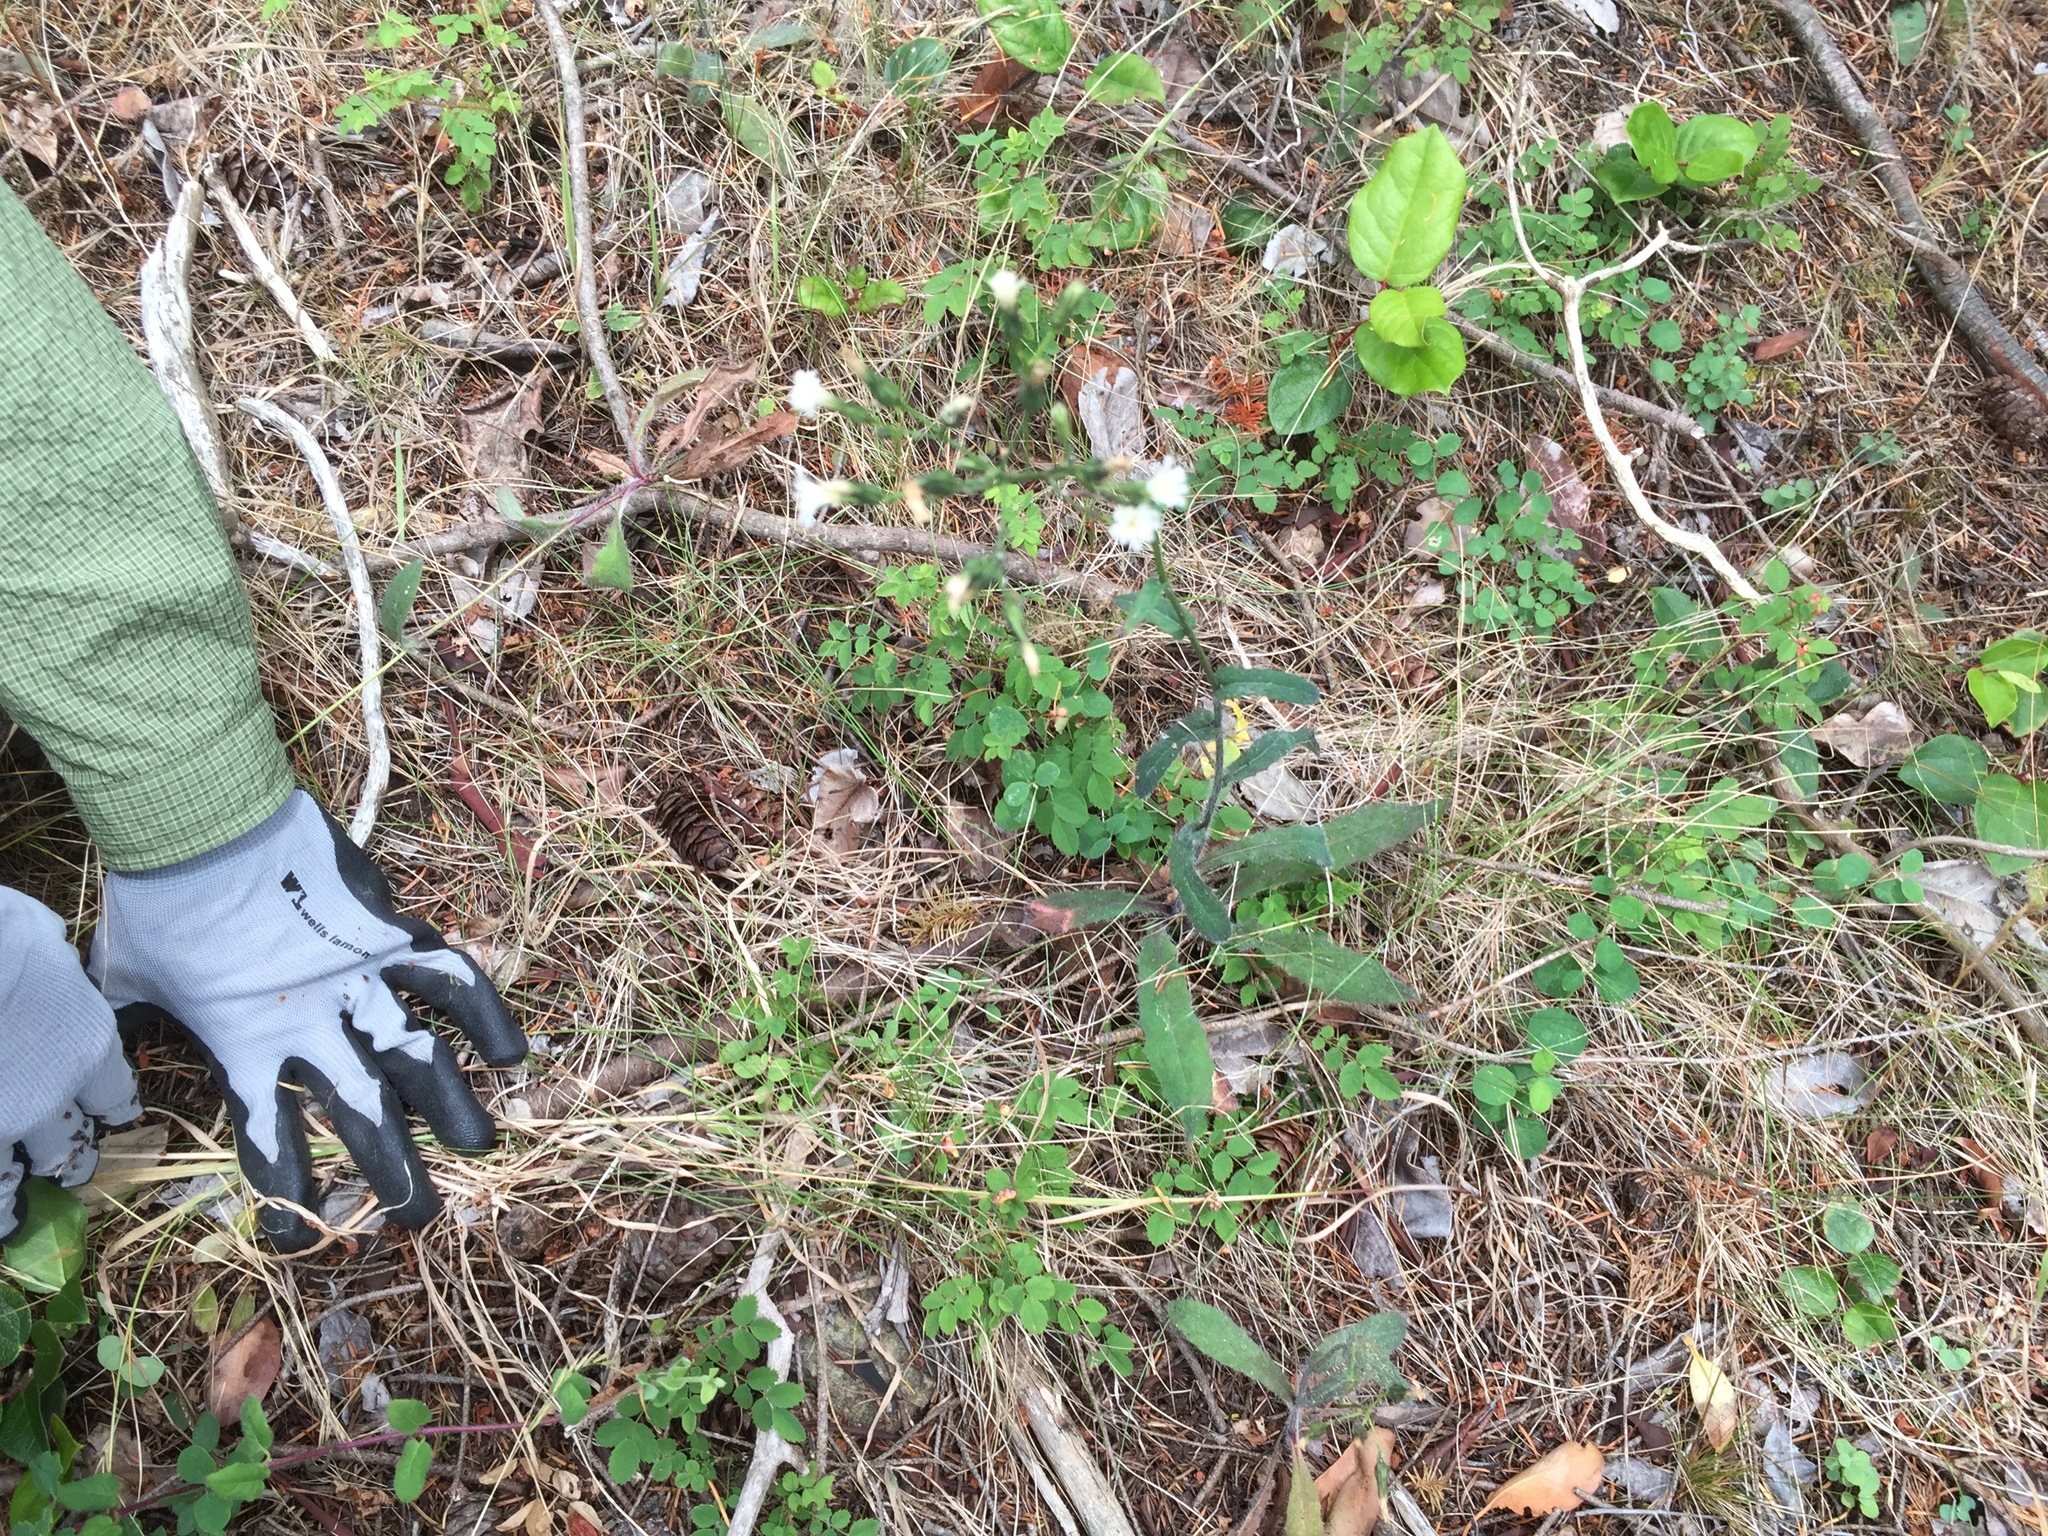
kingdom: Plantae
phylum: Tracheophyta
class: Magnoliopsida
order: Asterales
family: Asteraceae
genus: Hieracium
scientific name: Hieracium albiflorum
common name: White hawkweed
